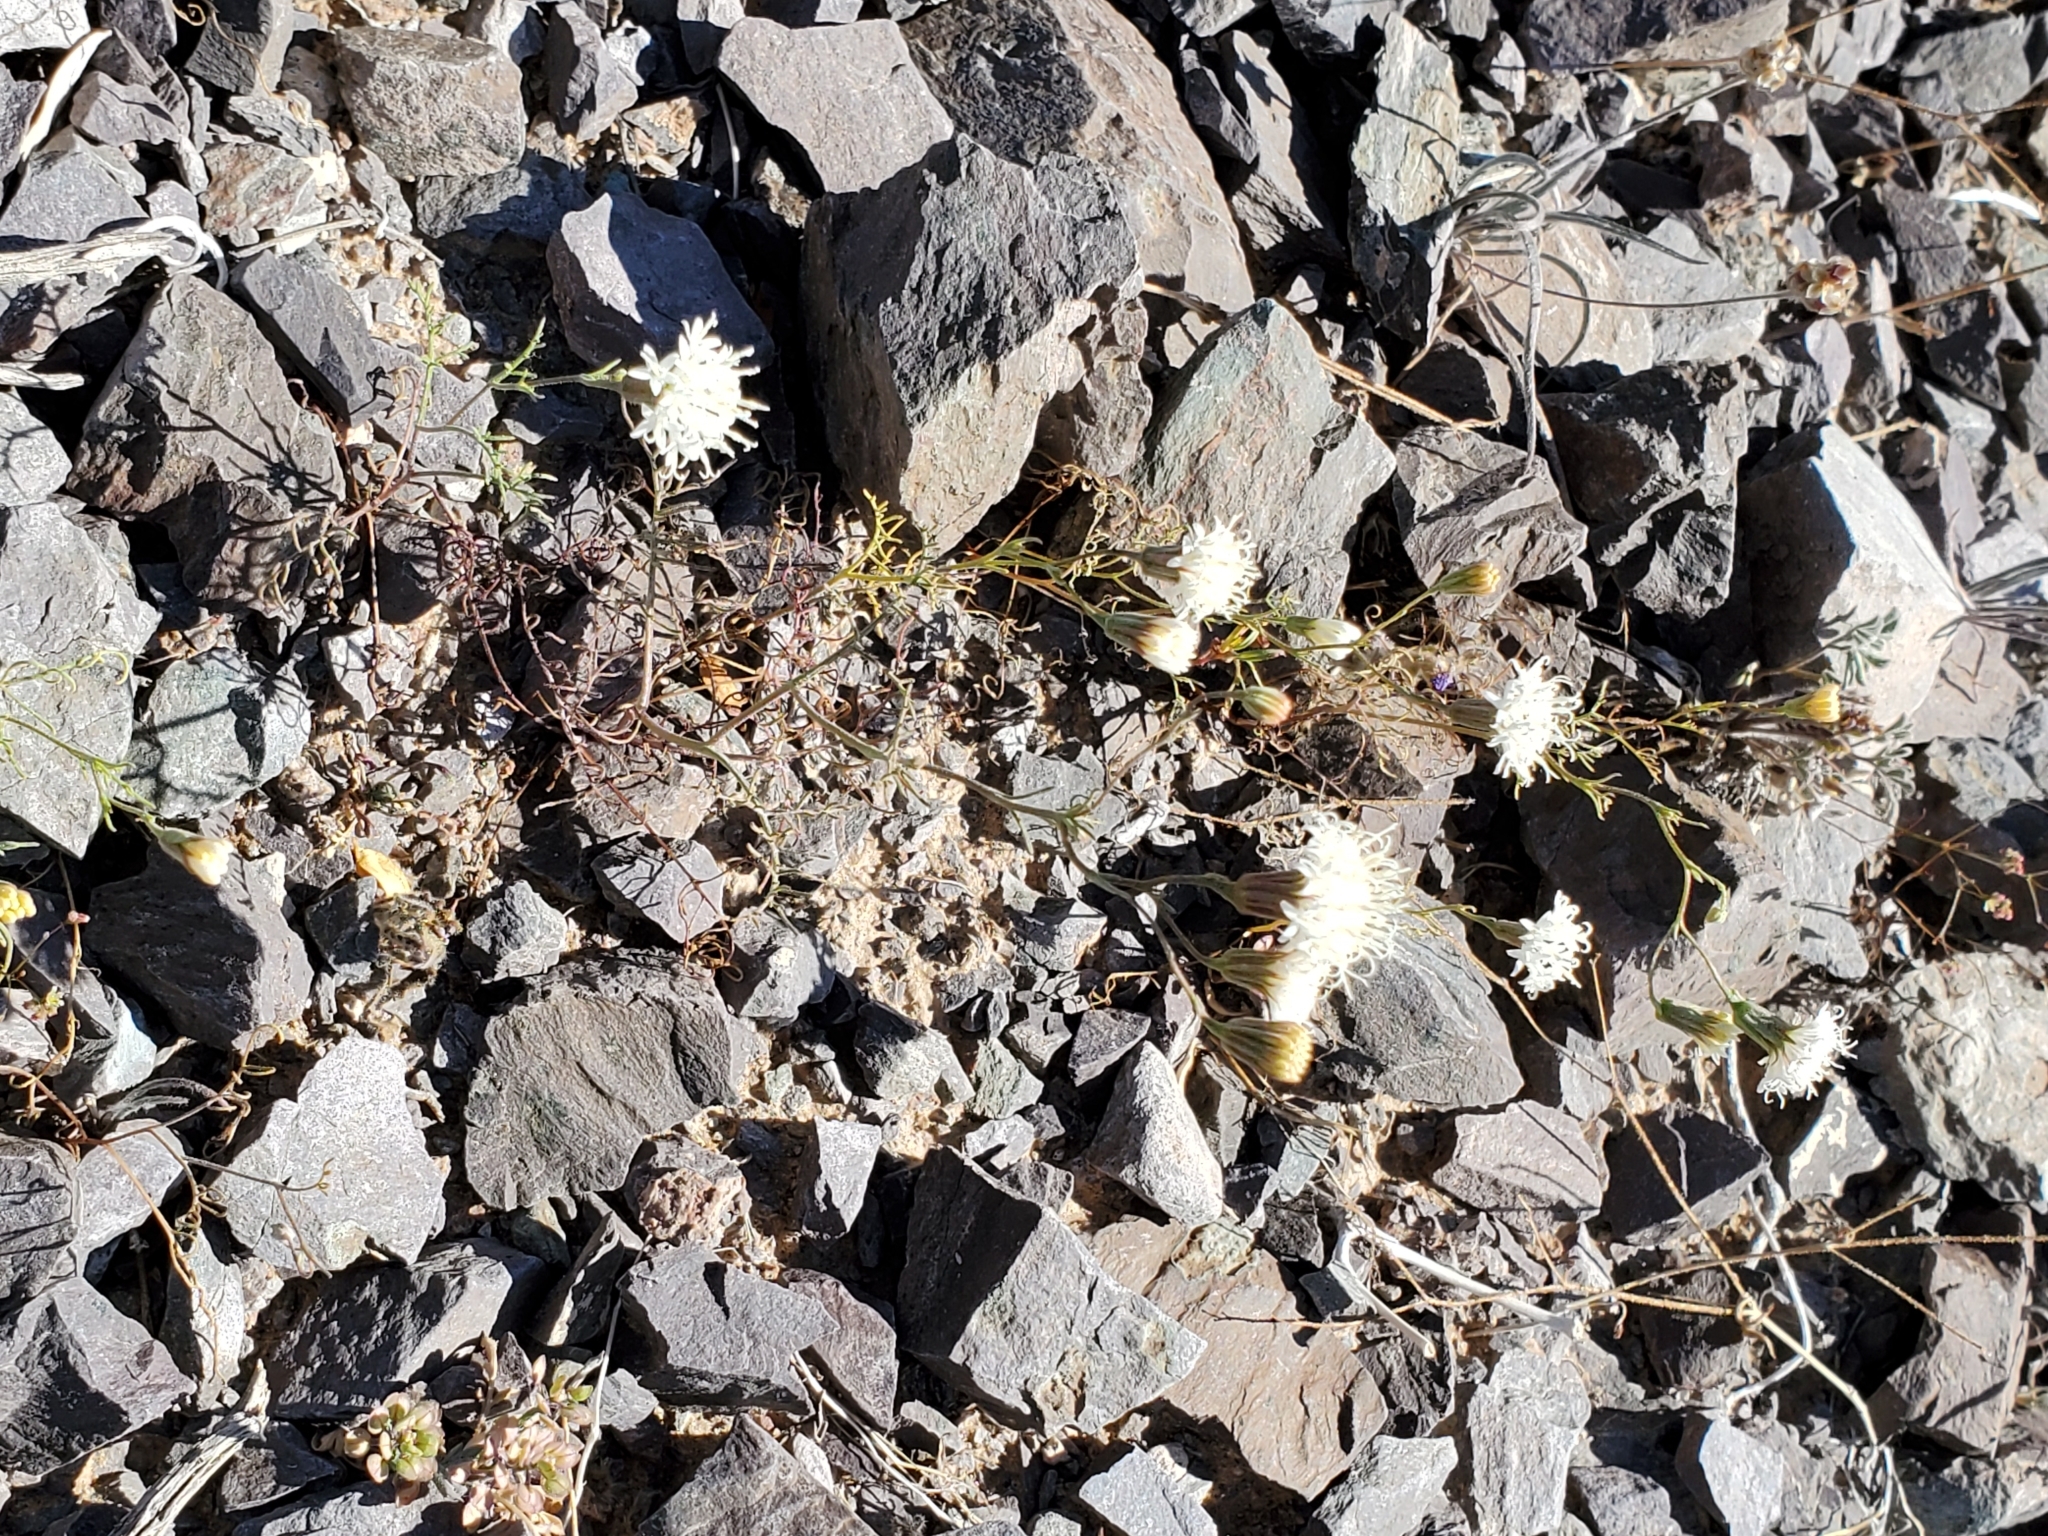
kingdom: Plantae
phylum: Tracheophyta
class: Magnoliopsida
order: Asterales
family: Asteraceae
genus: Chaenactis
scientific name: Chaenactis carphoclinia
